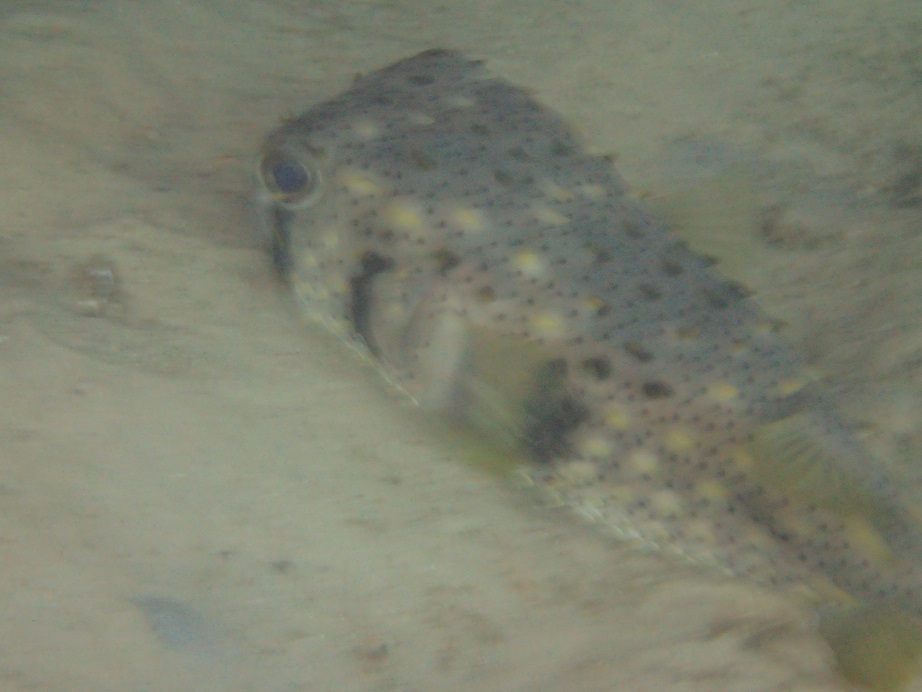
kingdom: Animalia
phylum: Chordata
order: Tetraodontiformes
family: Diodontidae
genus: Dicotylichthys
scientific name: Dicotylichthys punctulatus
